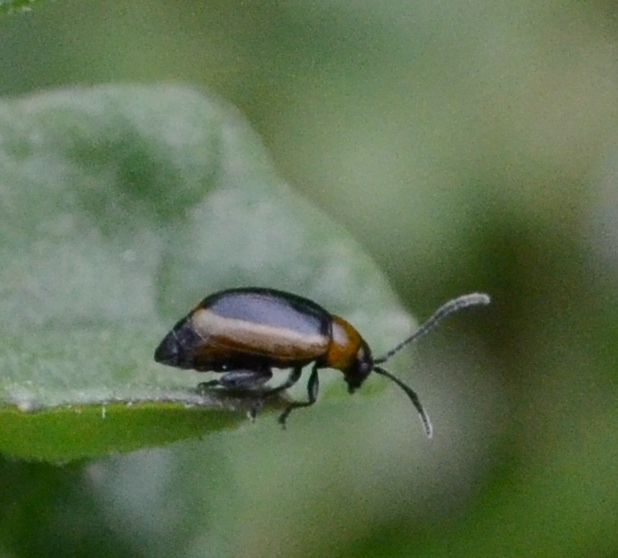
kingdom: Animalia
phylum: Arthropoda
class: Insecta
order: Coleoptera
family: Chrysomelidae
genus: Longitarsus
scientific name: Longitarsus dorsalis
